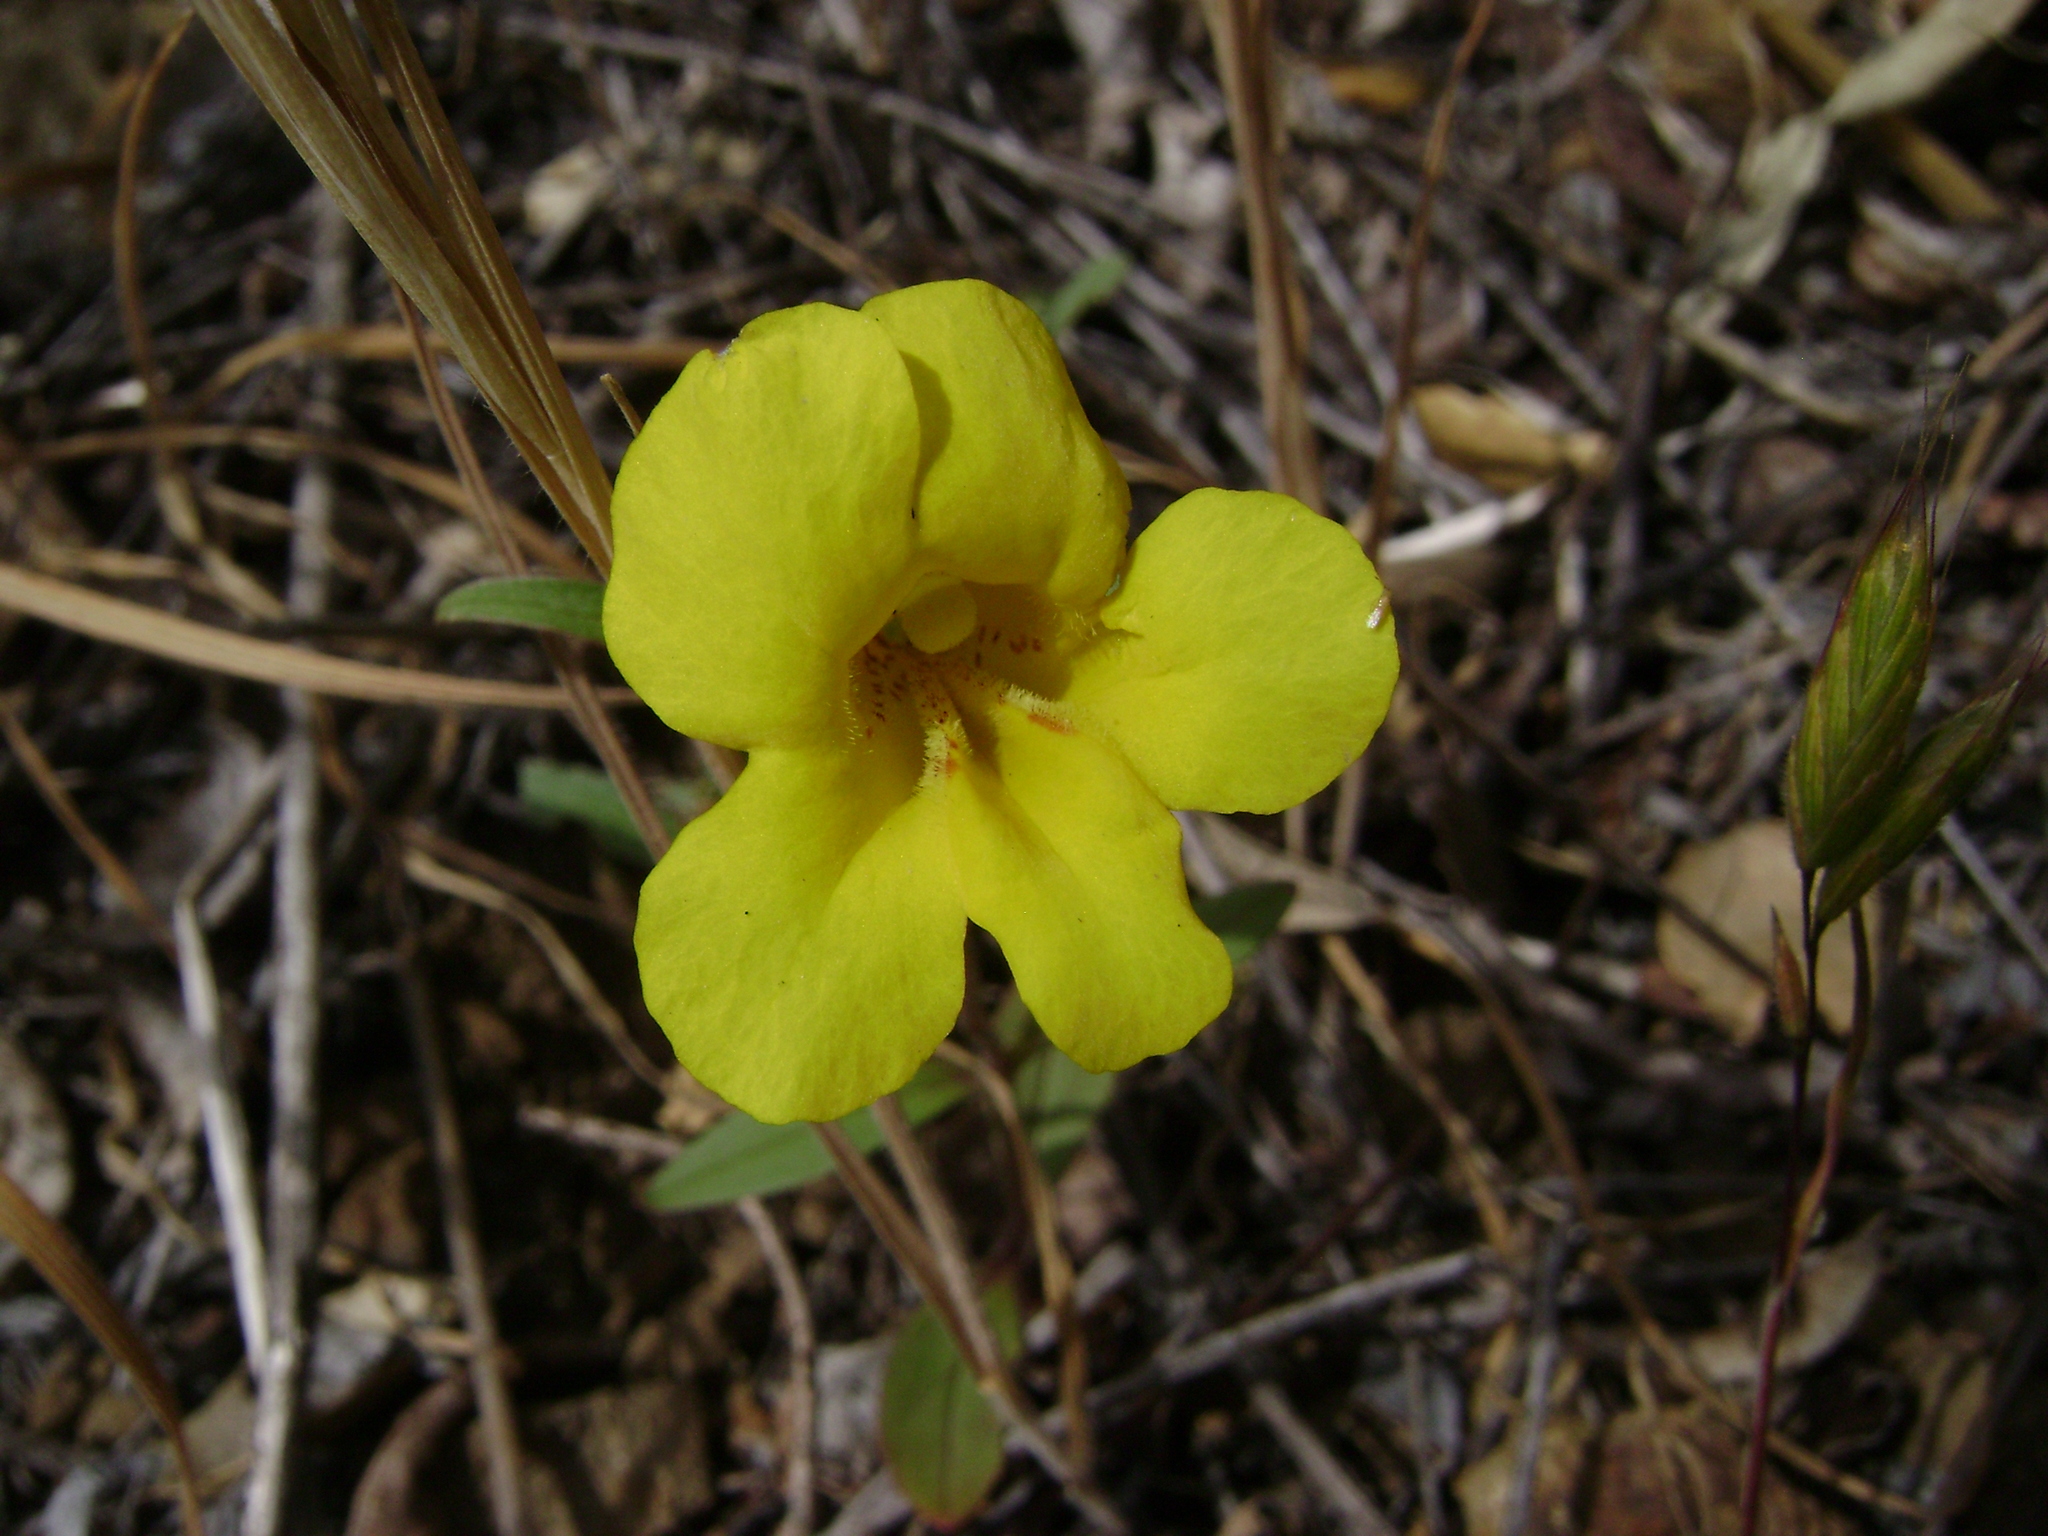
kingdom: Plantae
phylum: Tracheophyta
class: Magnoliopsida
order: Lamiales
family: Phrymaceae
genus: Diplacus
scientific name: Diplacus brevipes
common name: Wide-throat yellow monkey-flower
